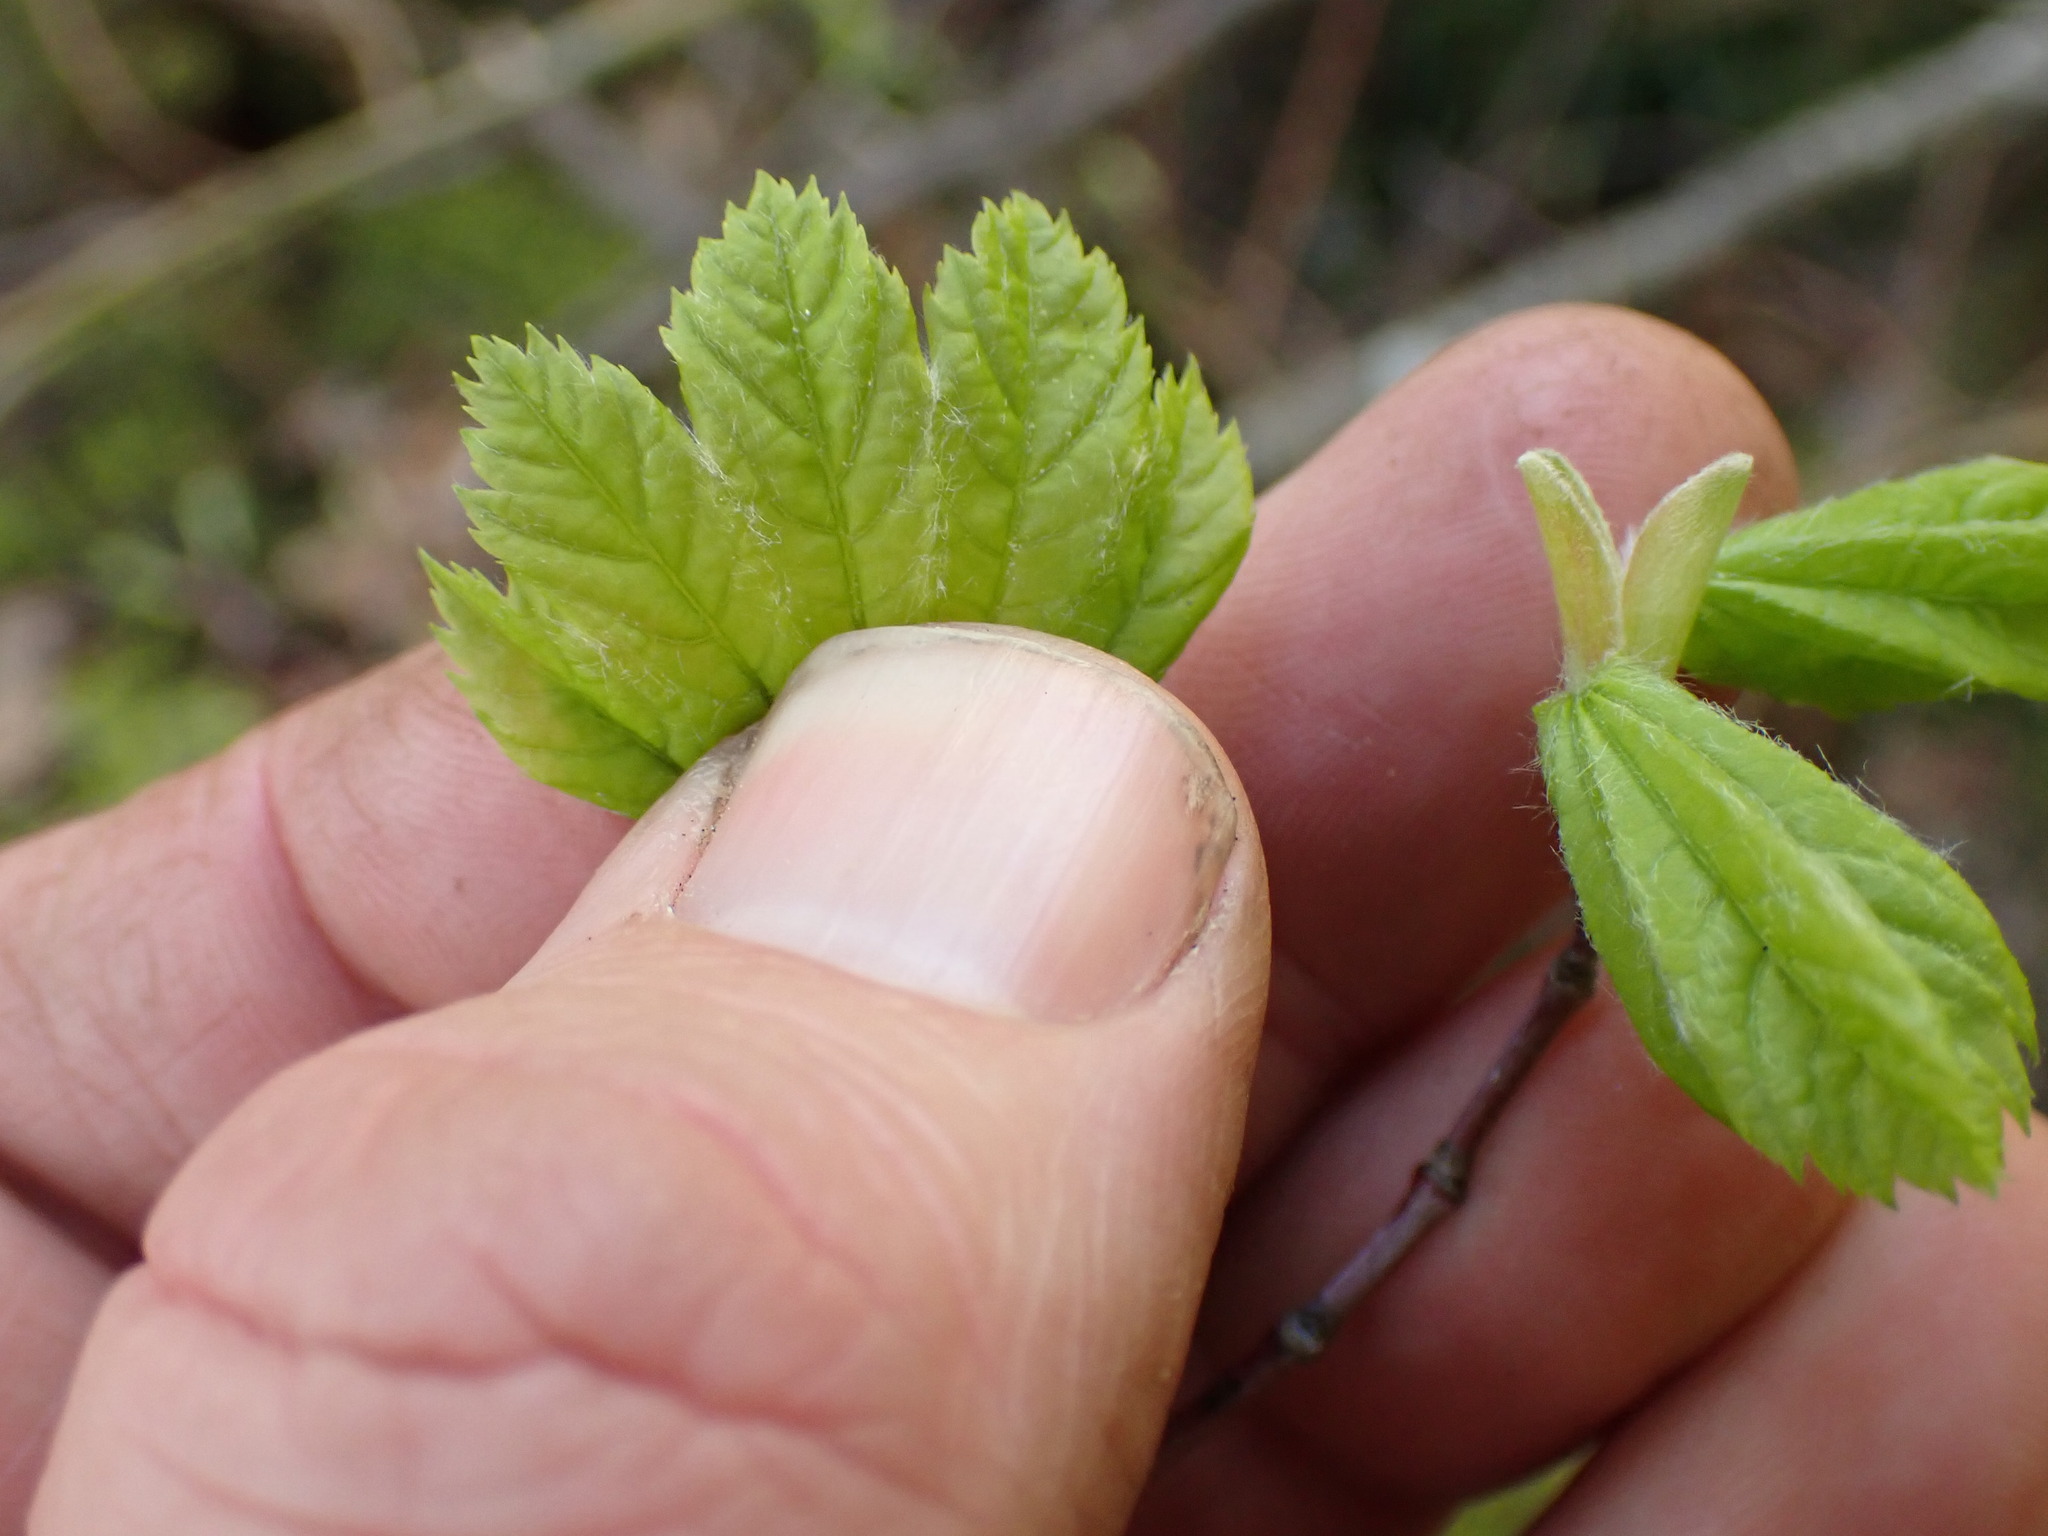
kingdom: Plantae
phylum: Tracheophyta
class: Magnoliopsida
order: Sapindales
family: Sapindaceae
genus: Acer
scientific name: Acer circinatum
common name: Vine maple
